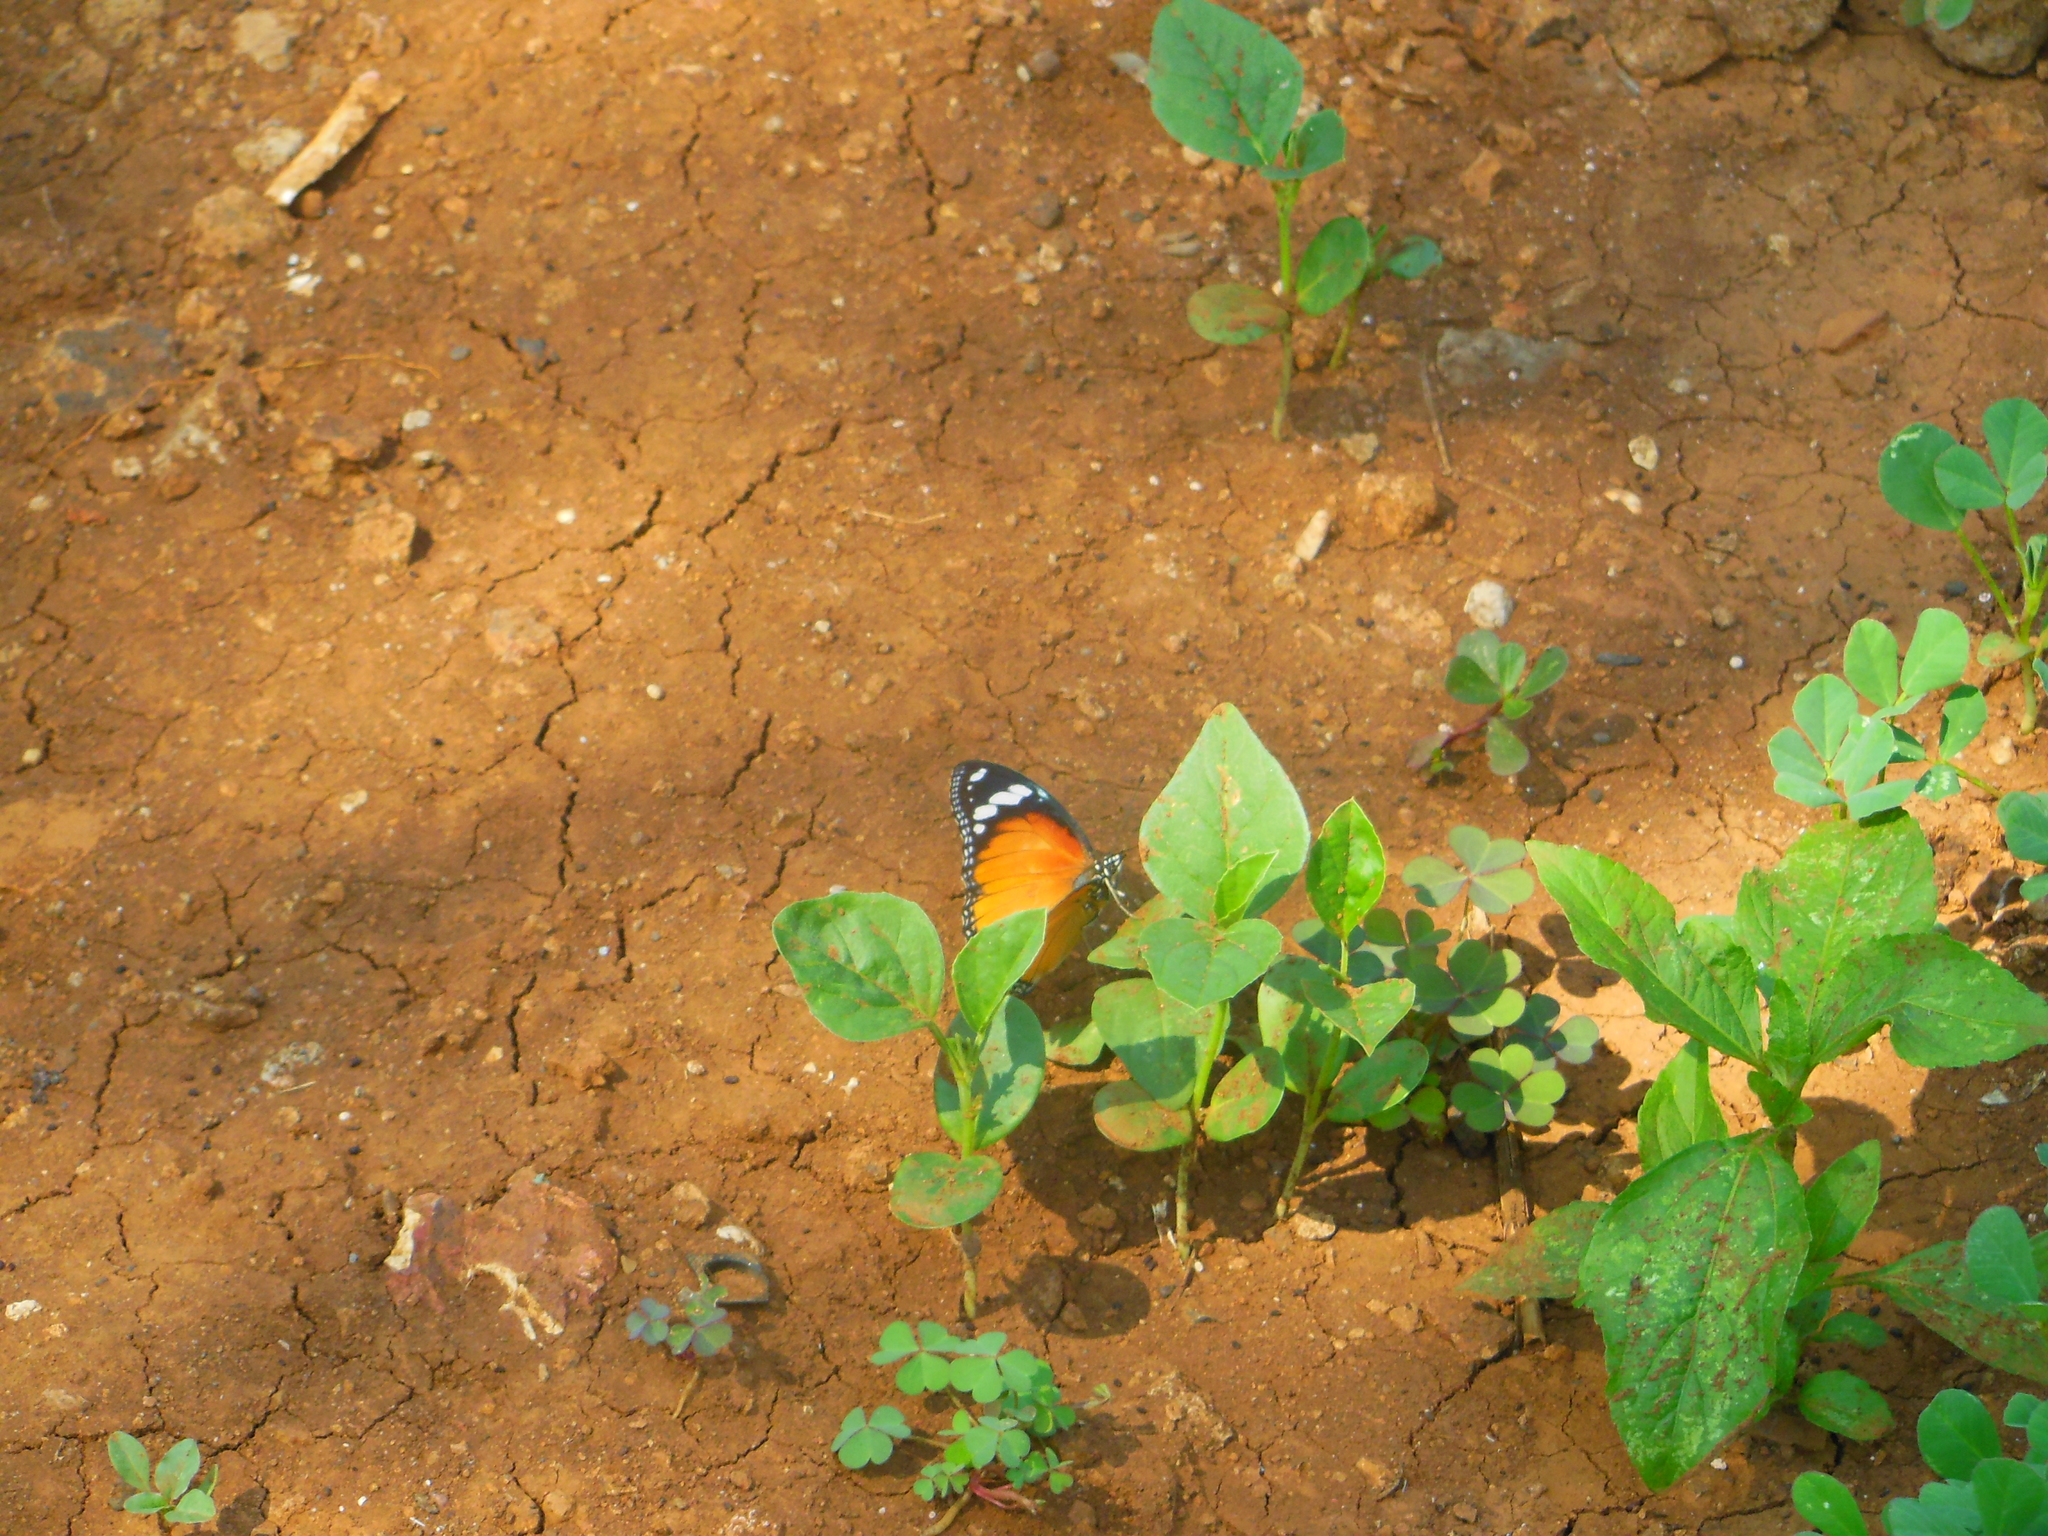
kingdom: Animalia
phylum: Arthropoda
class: Insecta
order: Lepidoptera
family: Nymphalidae
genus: Hypolimnas
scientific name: Hypolimnas misippus
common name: False plain tiger
